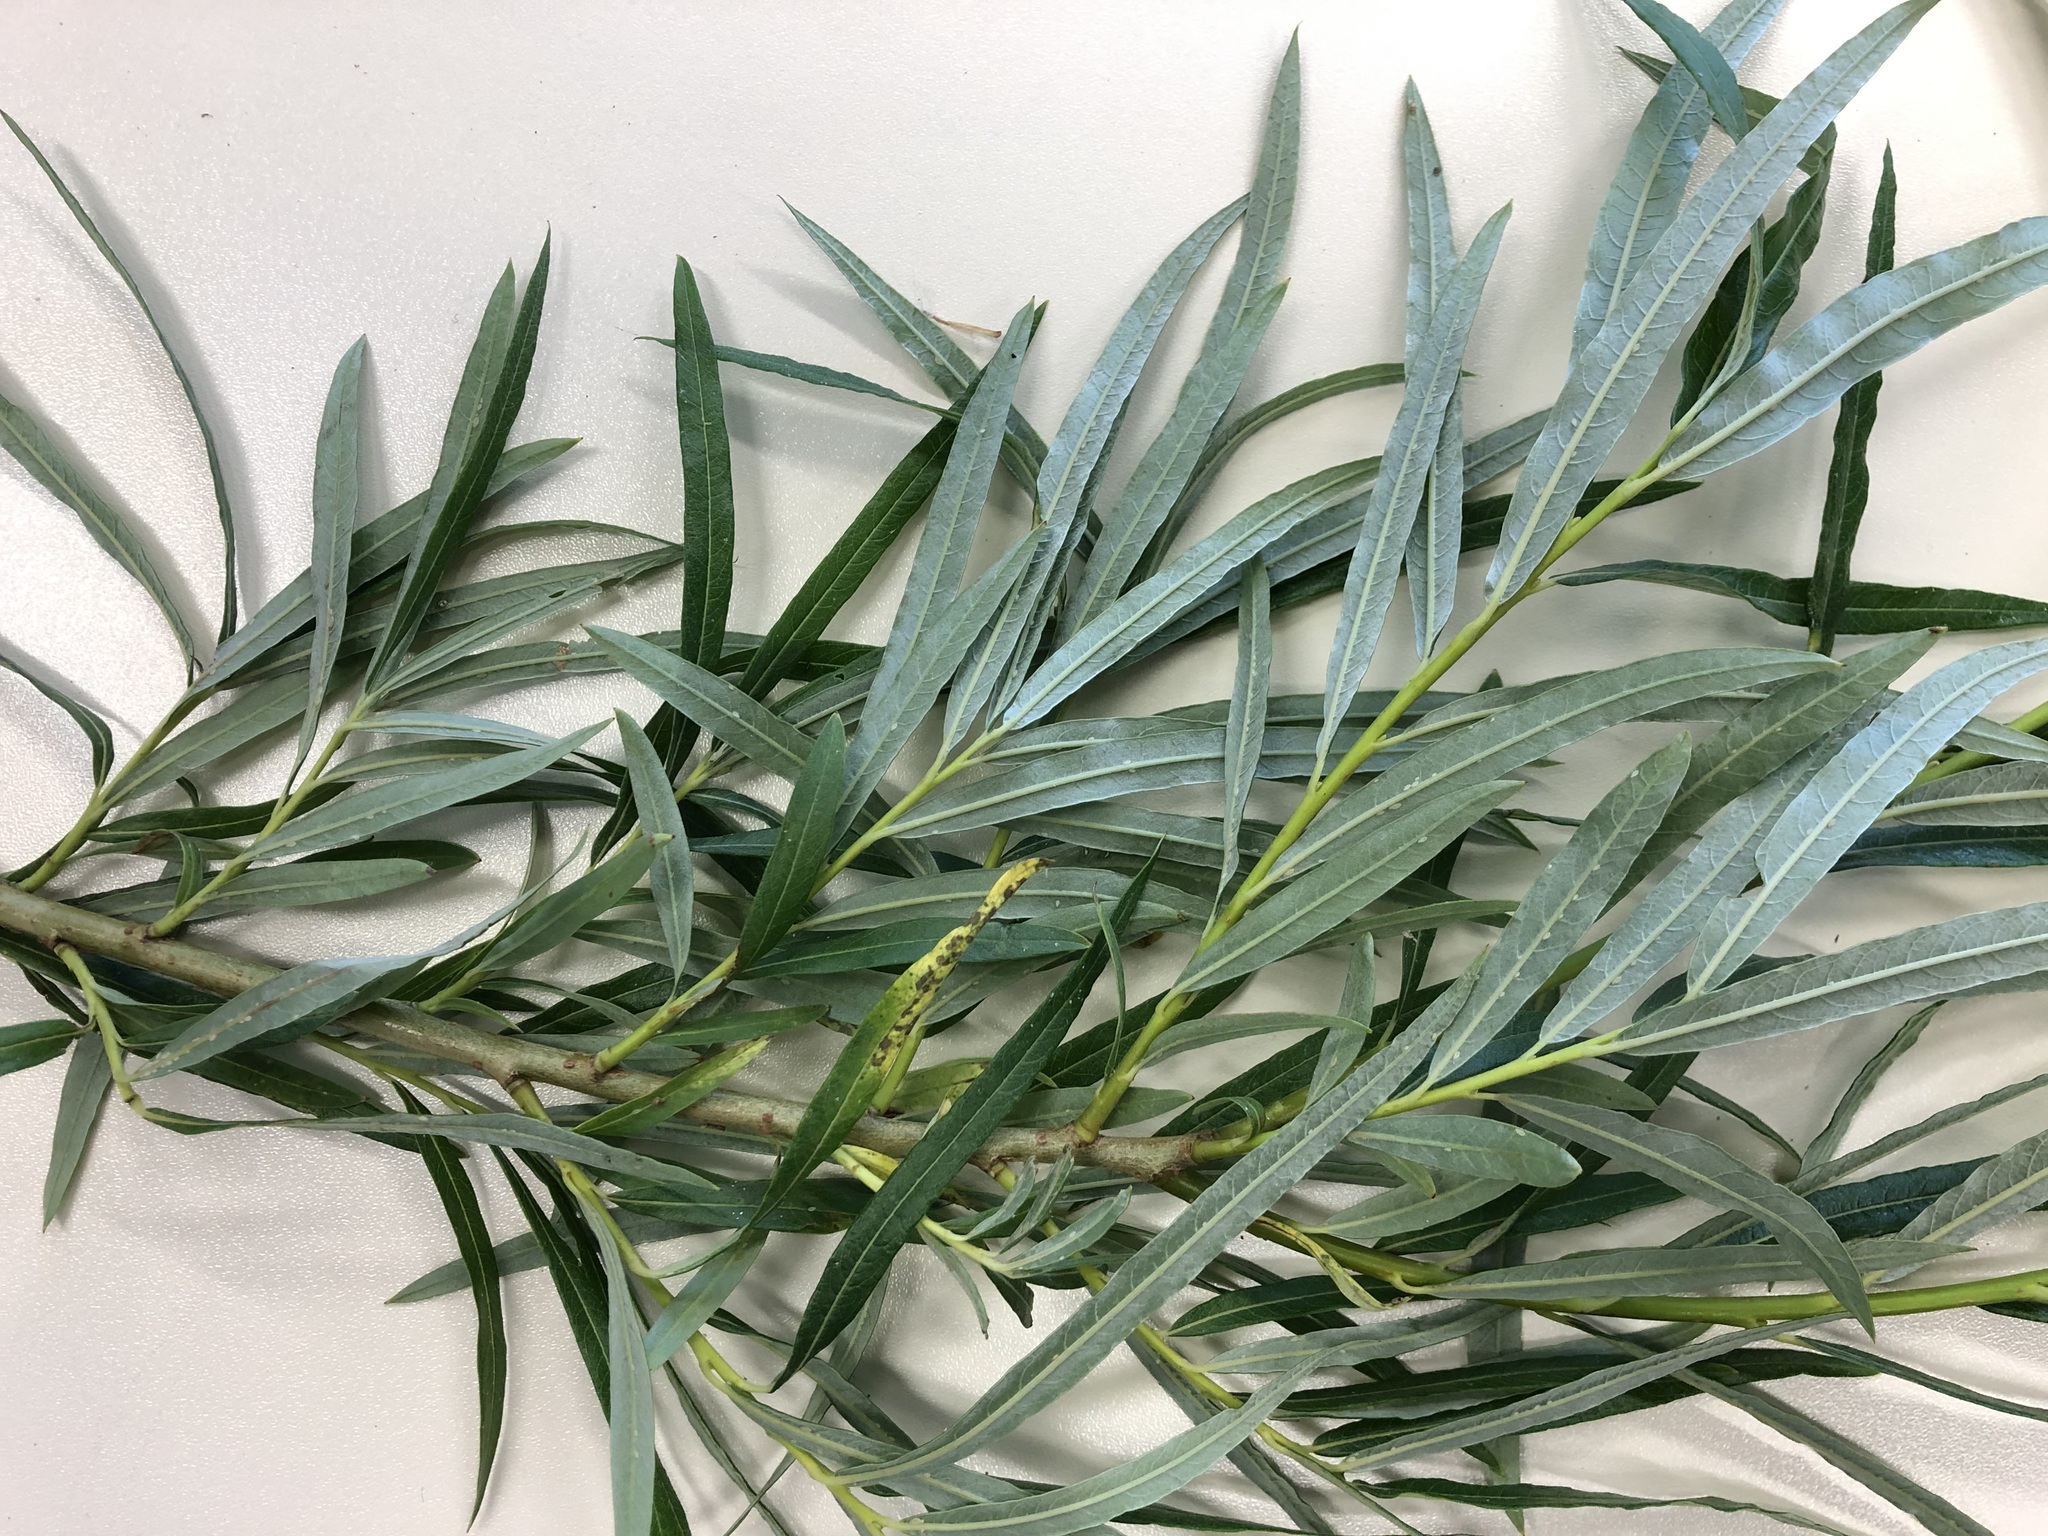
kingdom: Plantae
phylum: Tracheophyta
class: Magnoliopsida
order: Malpighiales
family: Salicaceae
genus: Salix
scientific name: Salix eleagnos
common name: Elaeagnus willow
